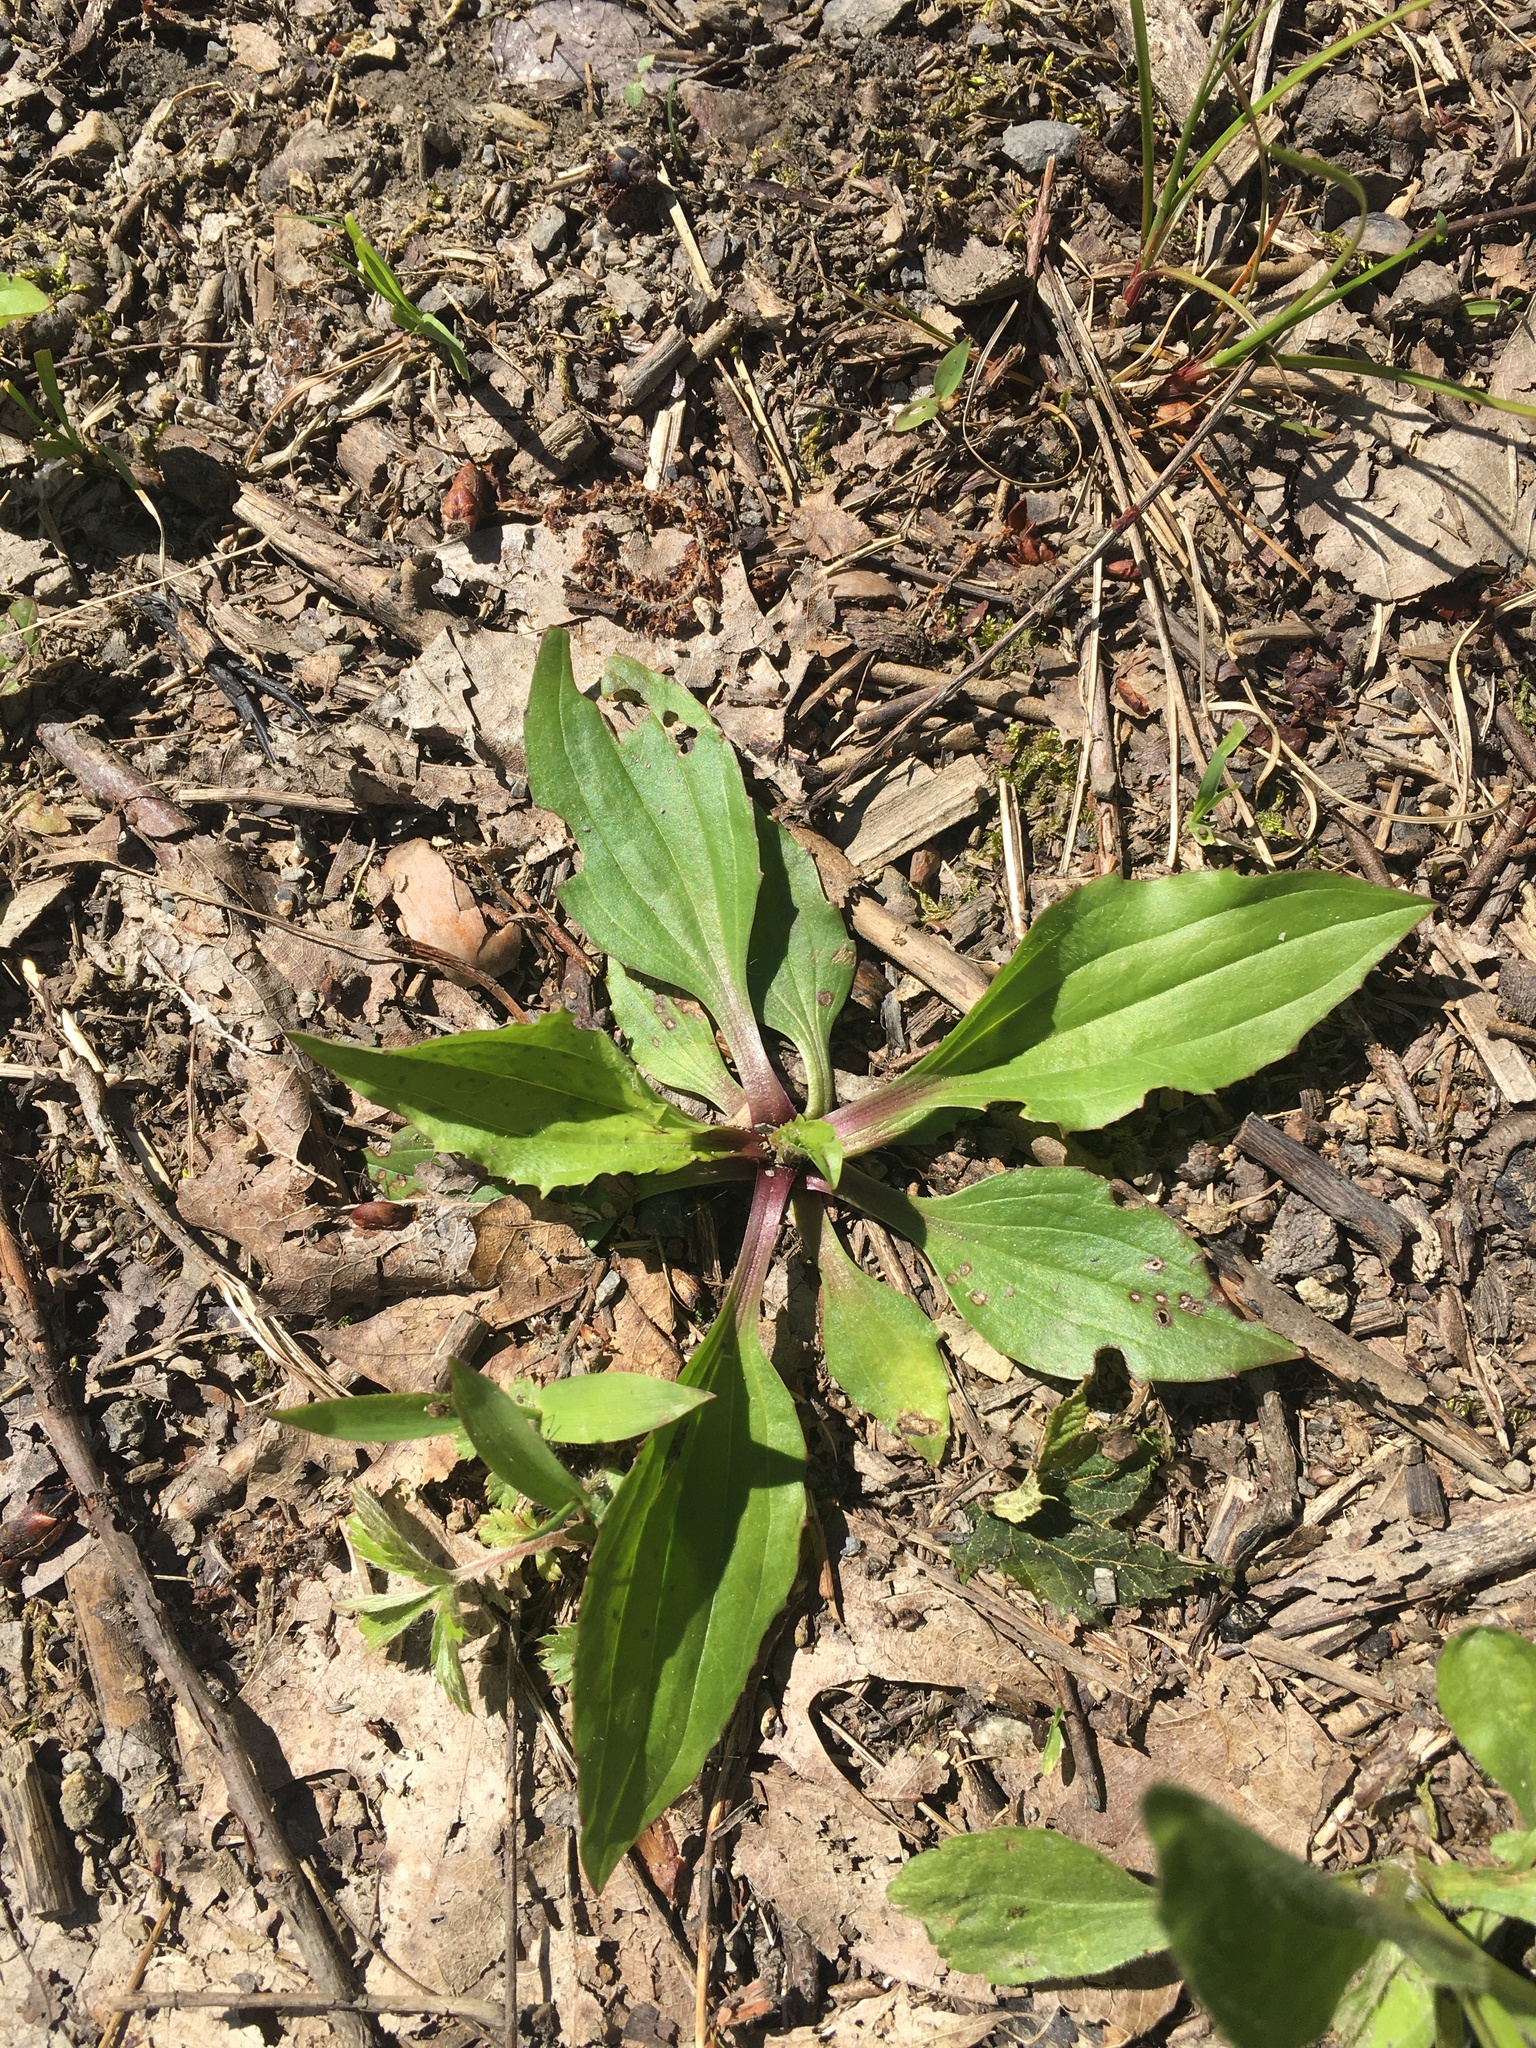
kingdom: Plantae
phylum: Tracheophyta
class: Magnoliopsida
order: Lamiales
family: Plantaginaceae
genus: Plantago
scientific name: Plantago rugelii
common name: American plantain
